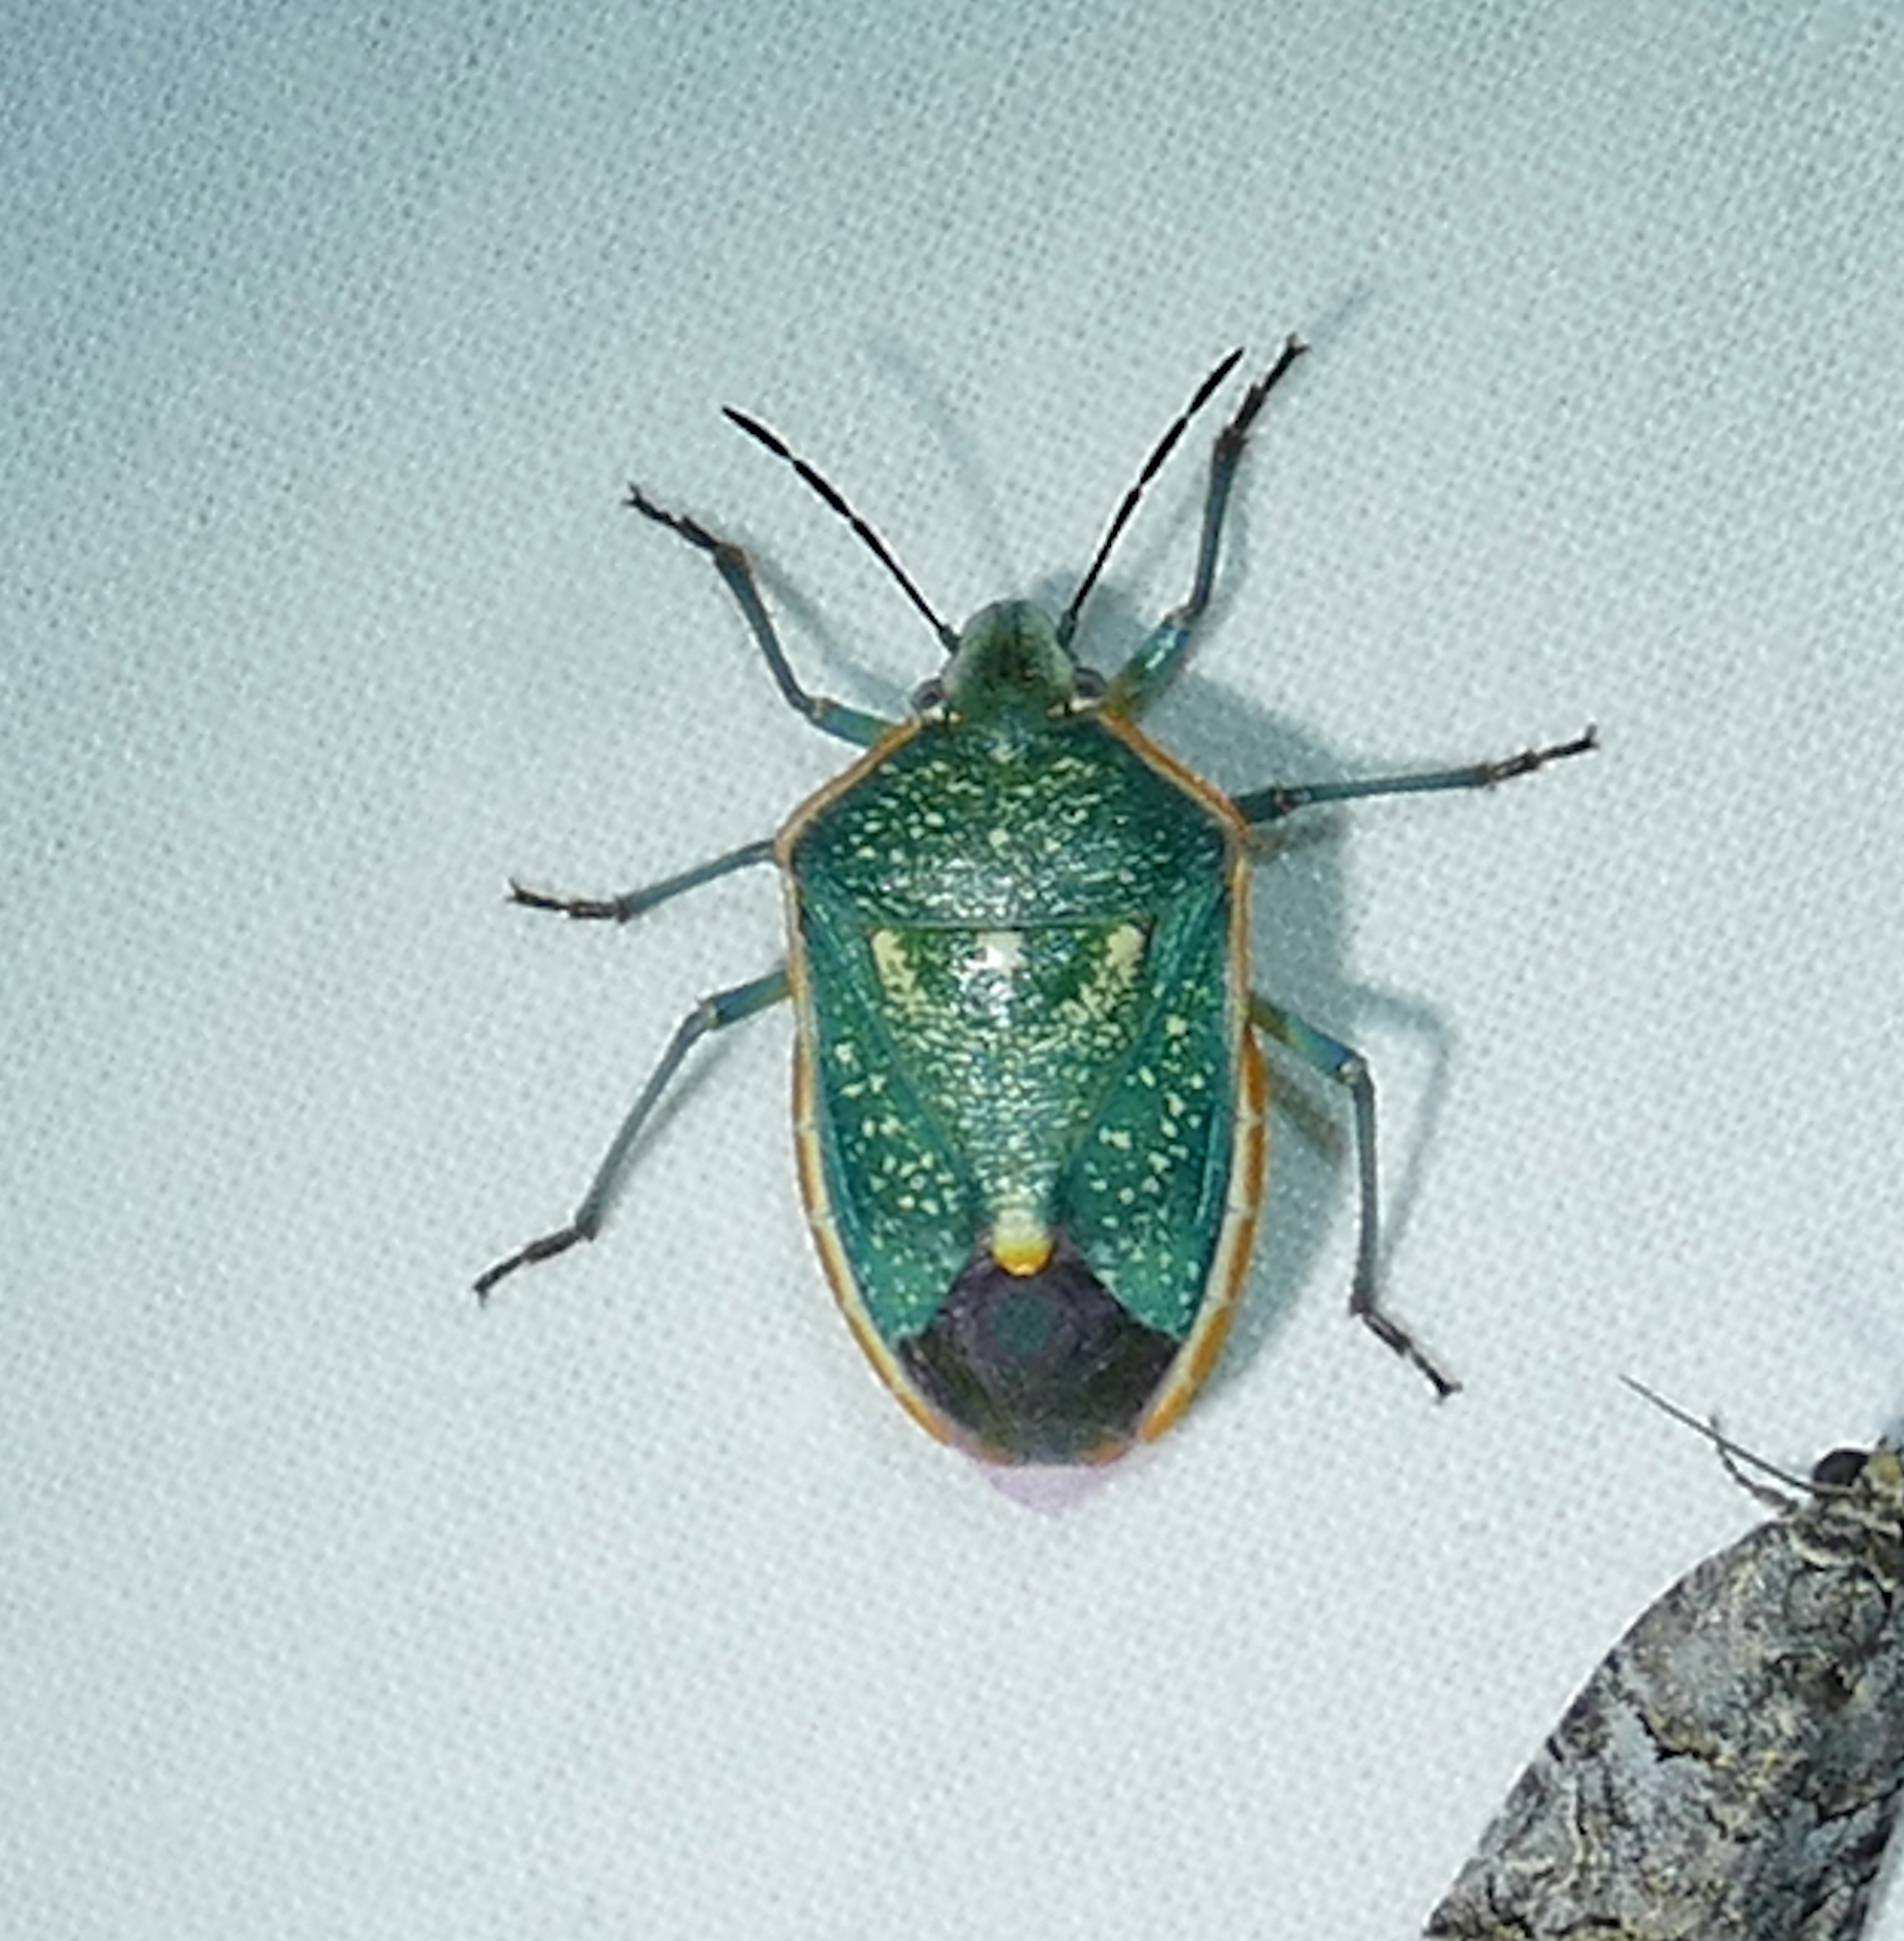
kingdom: Animalia
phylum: Arthropoda
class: Insecta
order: Hemiptera
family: Pentatomidae
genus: Chlorochroa
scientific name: Chlorochroa sayi
